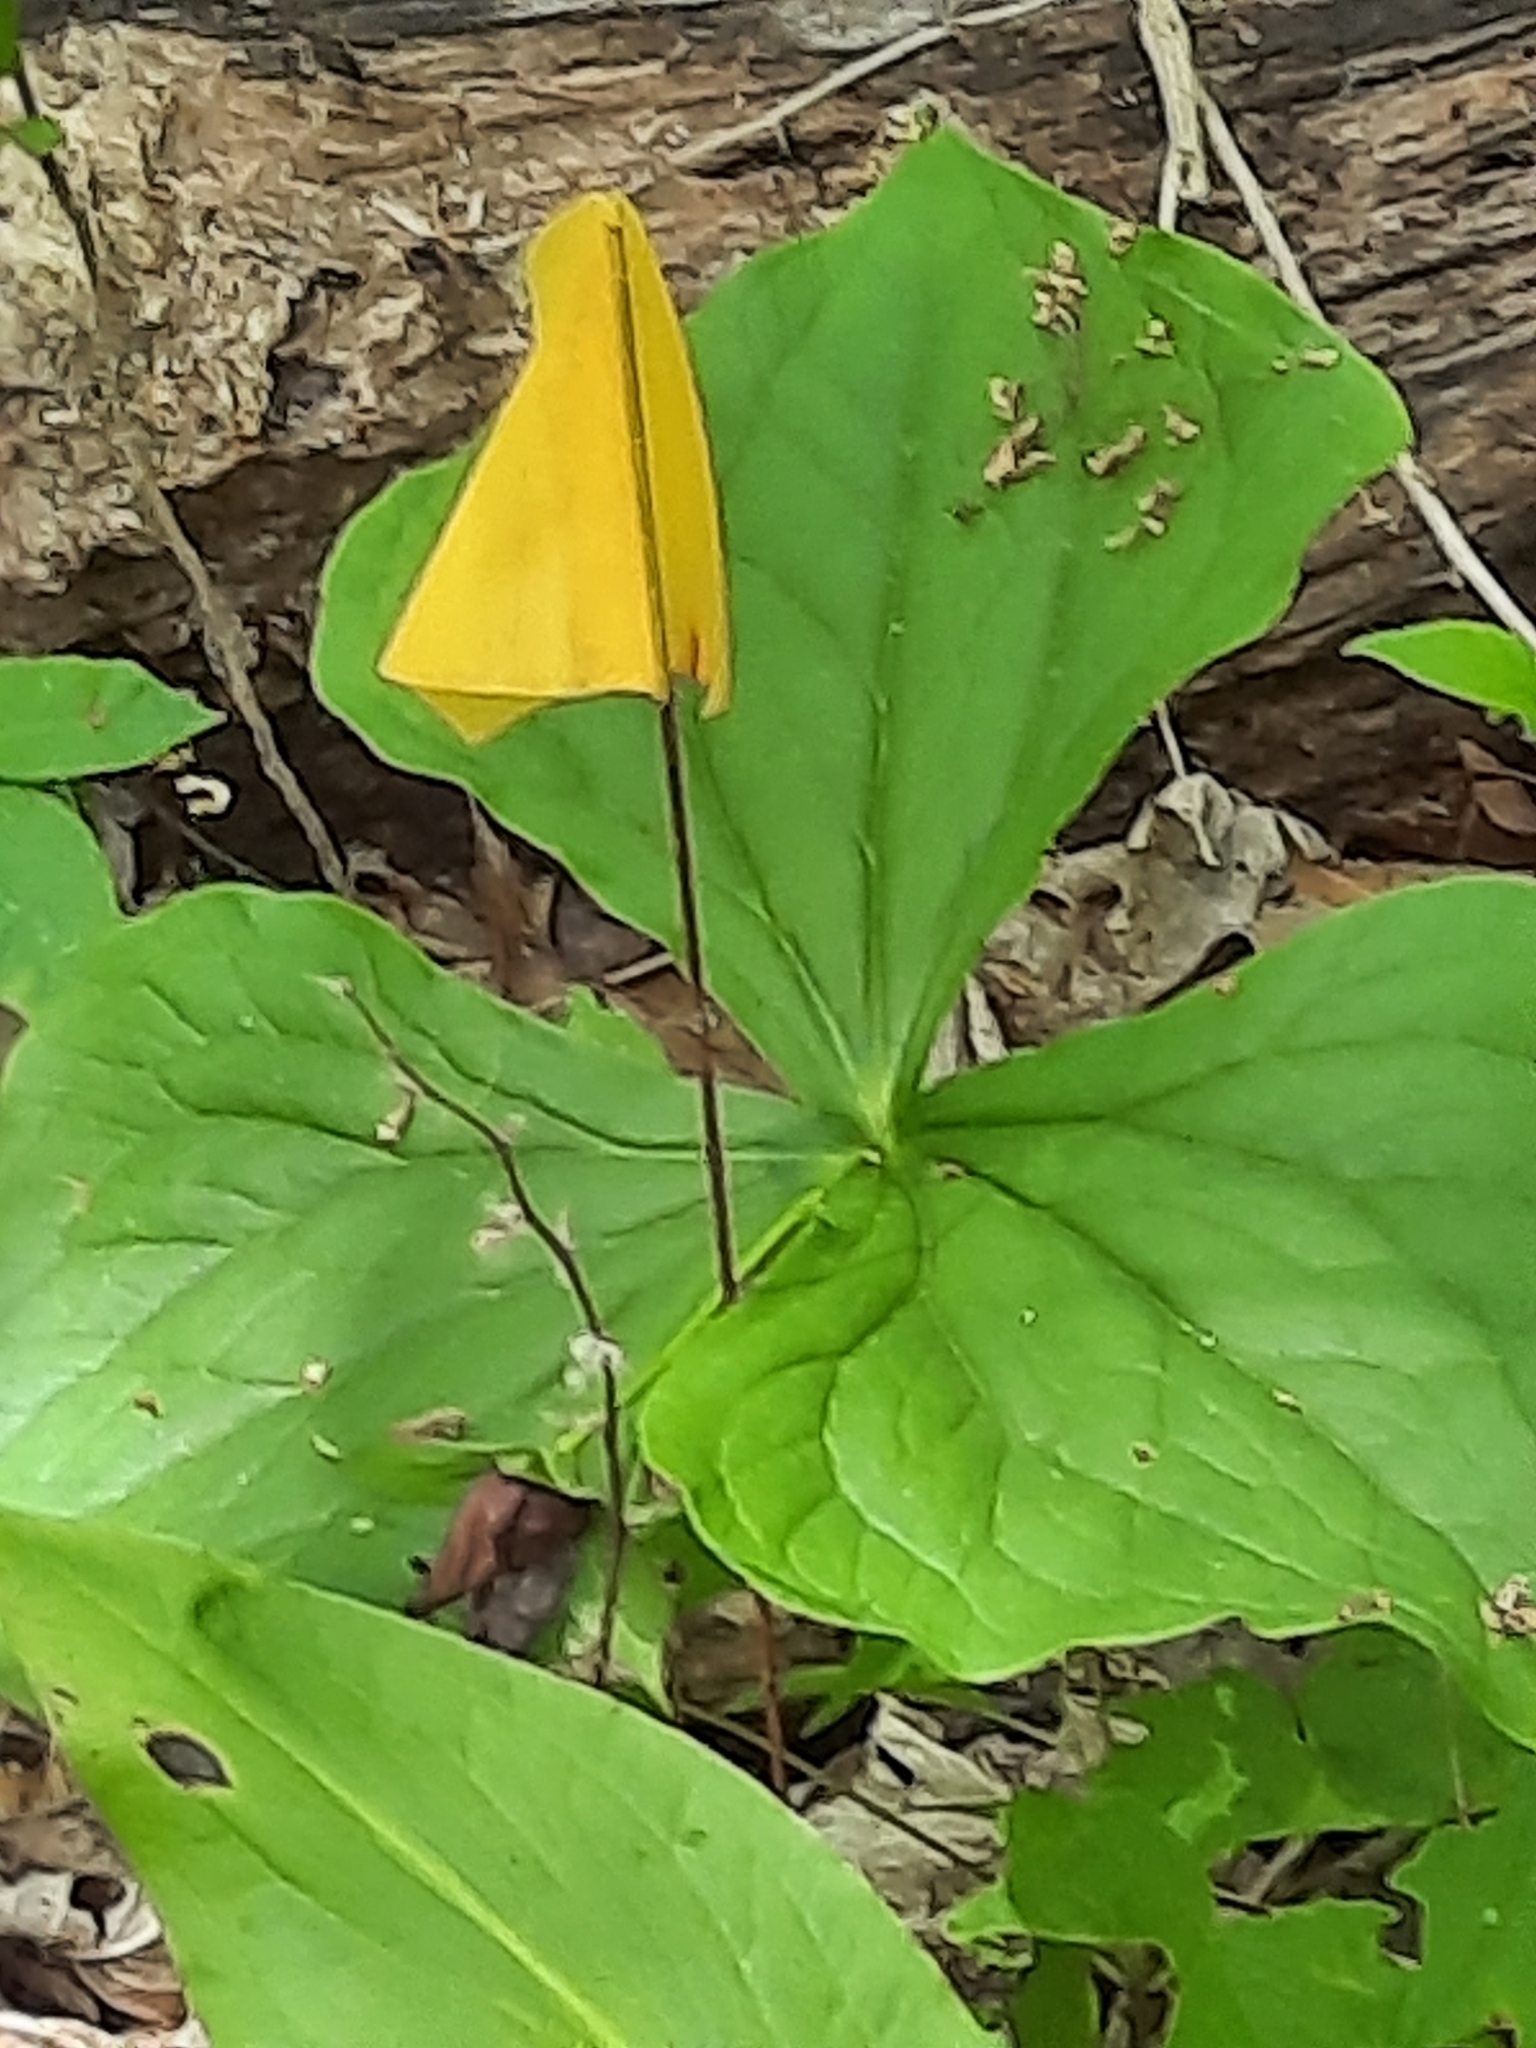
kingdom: Plantae
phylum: Tracheophyta
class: Liliopsida
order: Liliales
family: Melanthiaceae
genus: Trillium
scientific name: Trillium erectum
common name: Purple trillium
